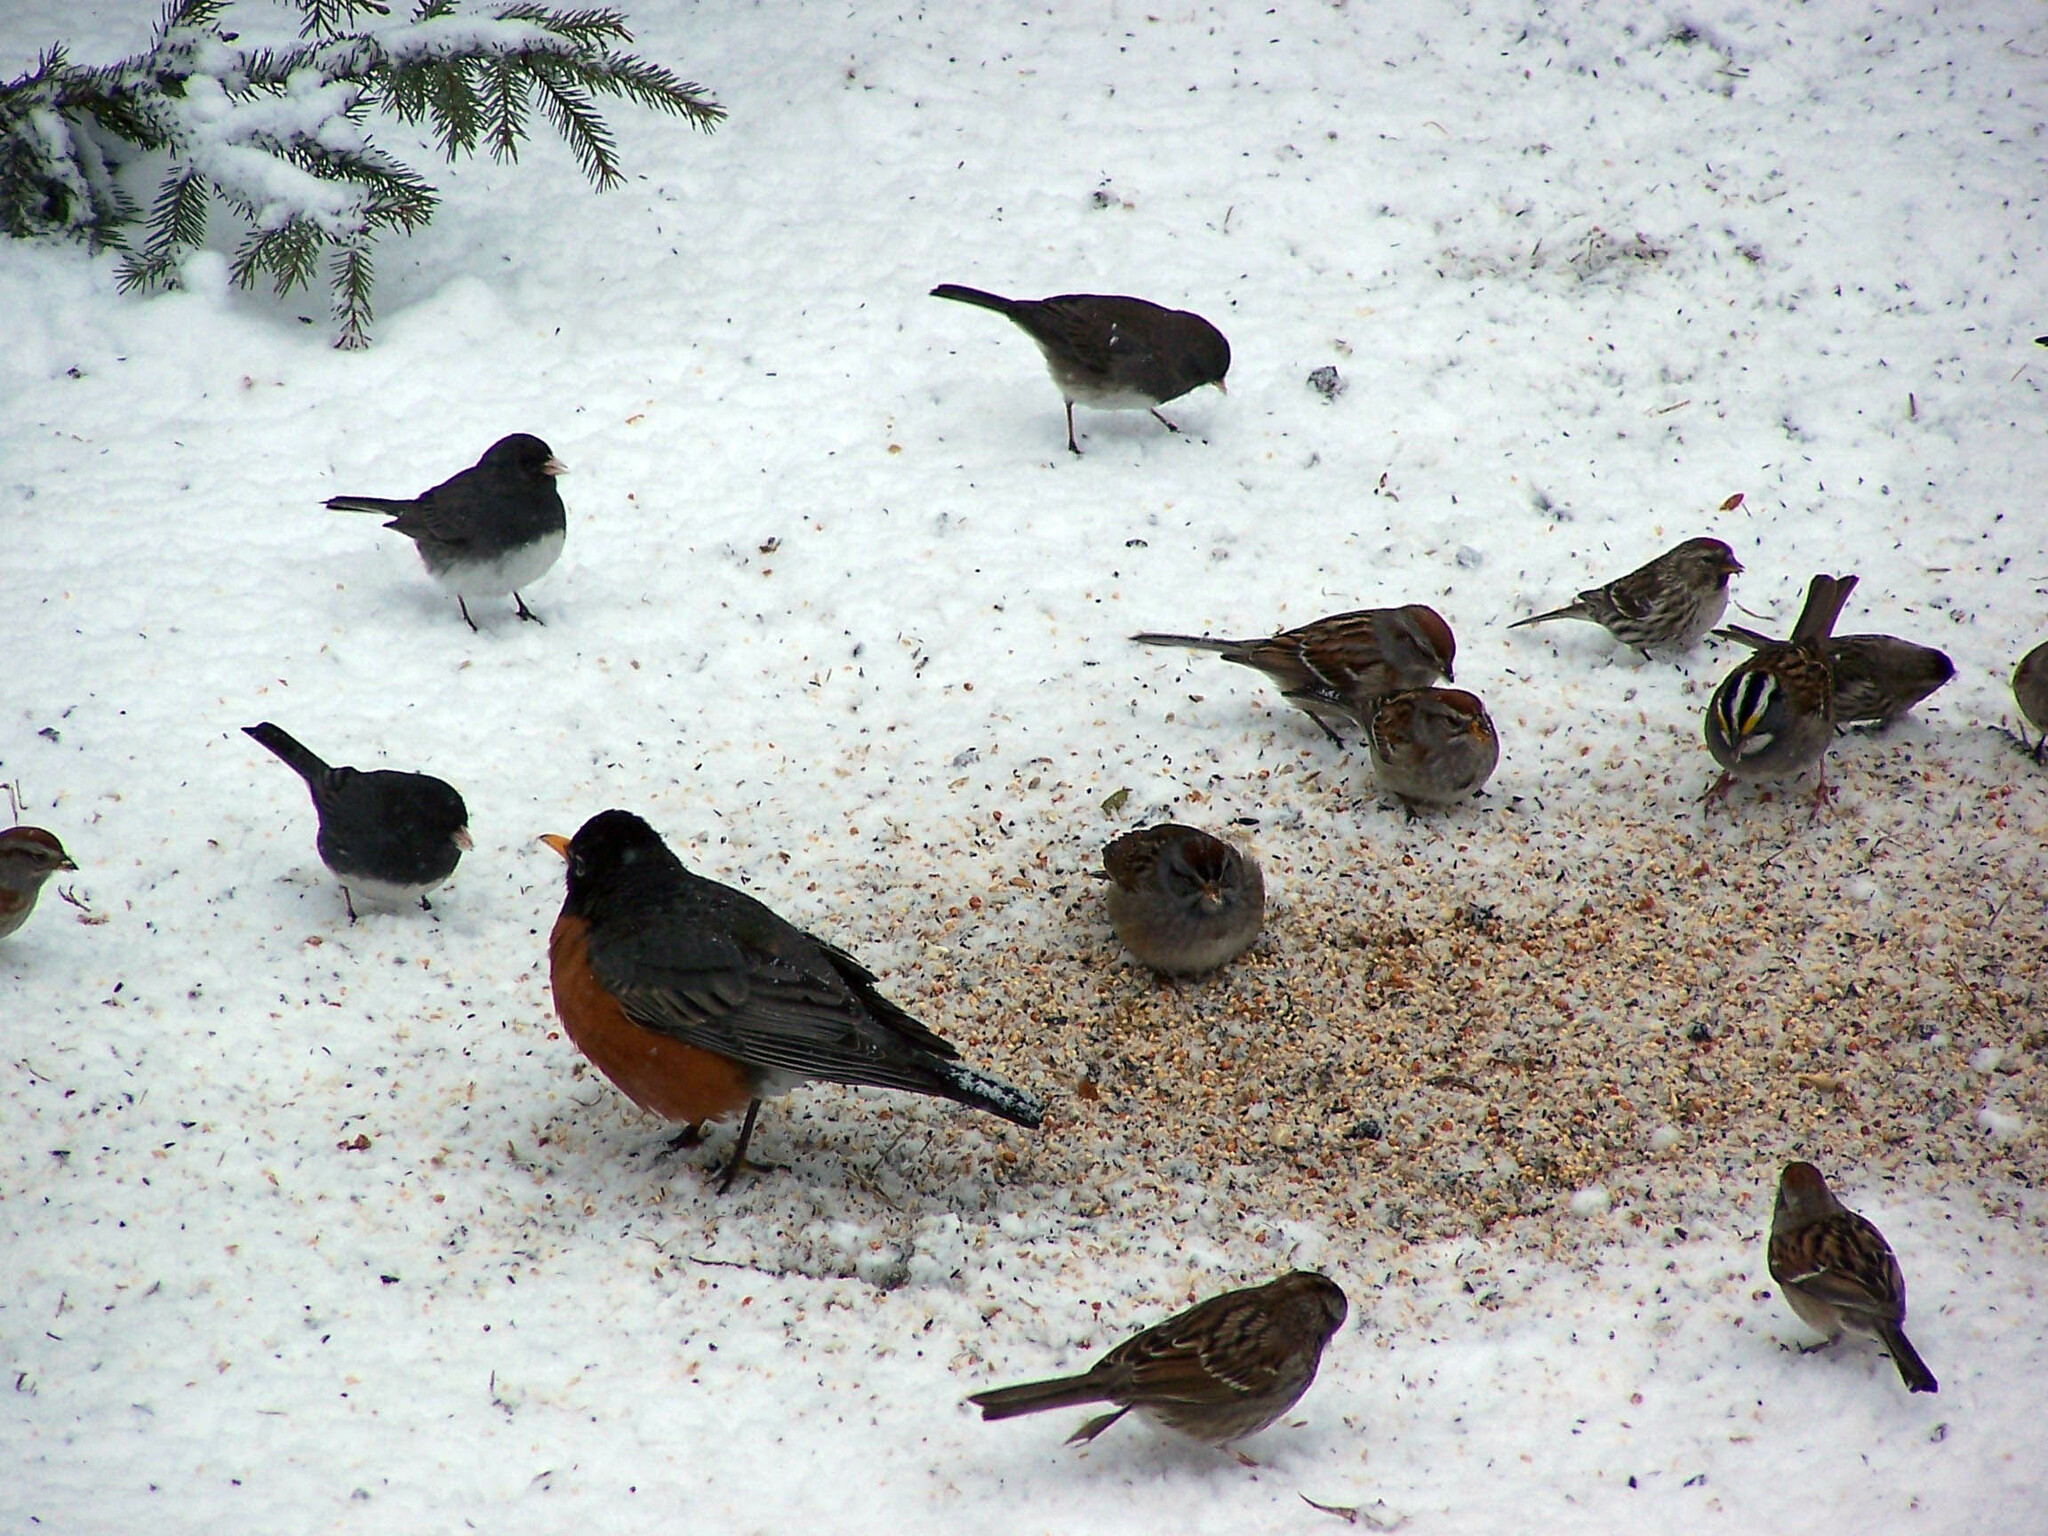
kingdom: Animalia
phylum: Chordata
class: Aves
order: Passeriformes
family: Turdidae
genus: Turdus
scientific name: Turdus migratorius
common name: American robin
